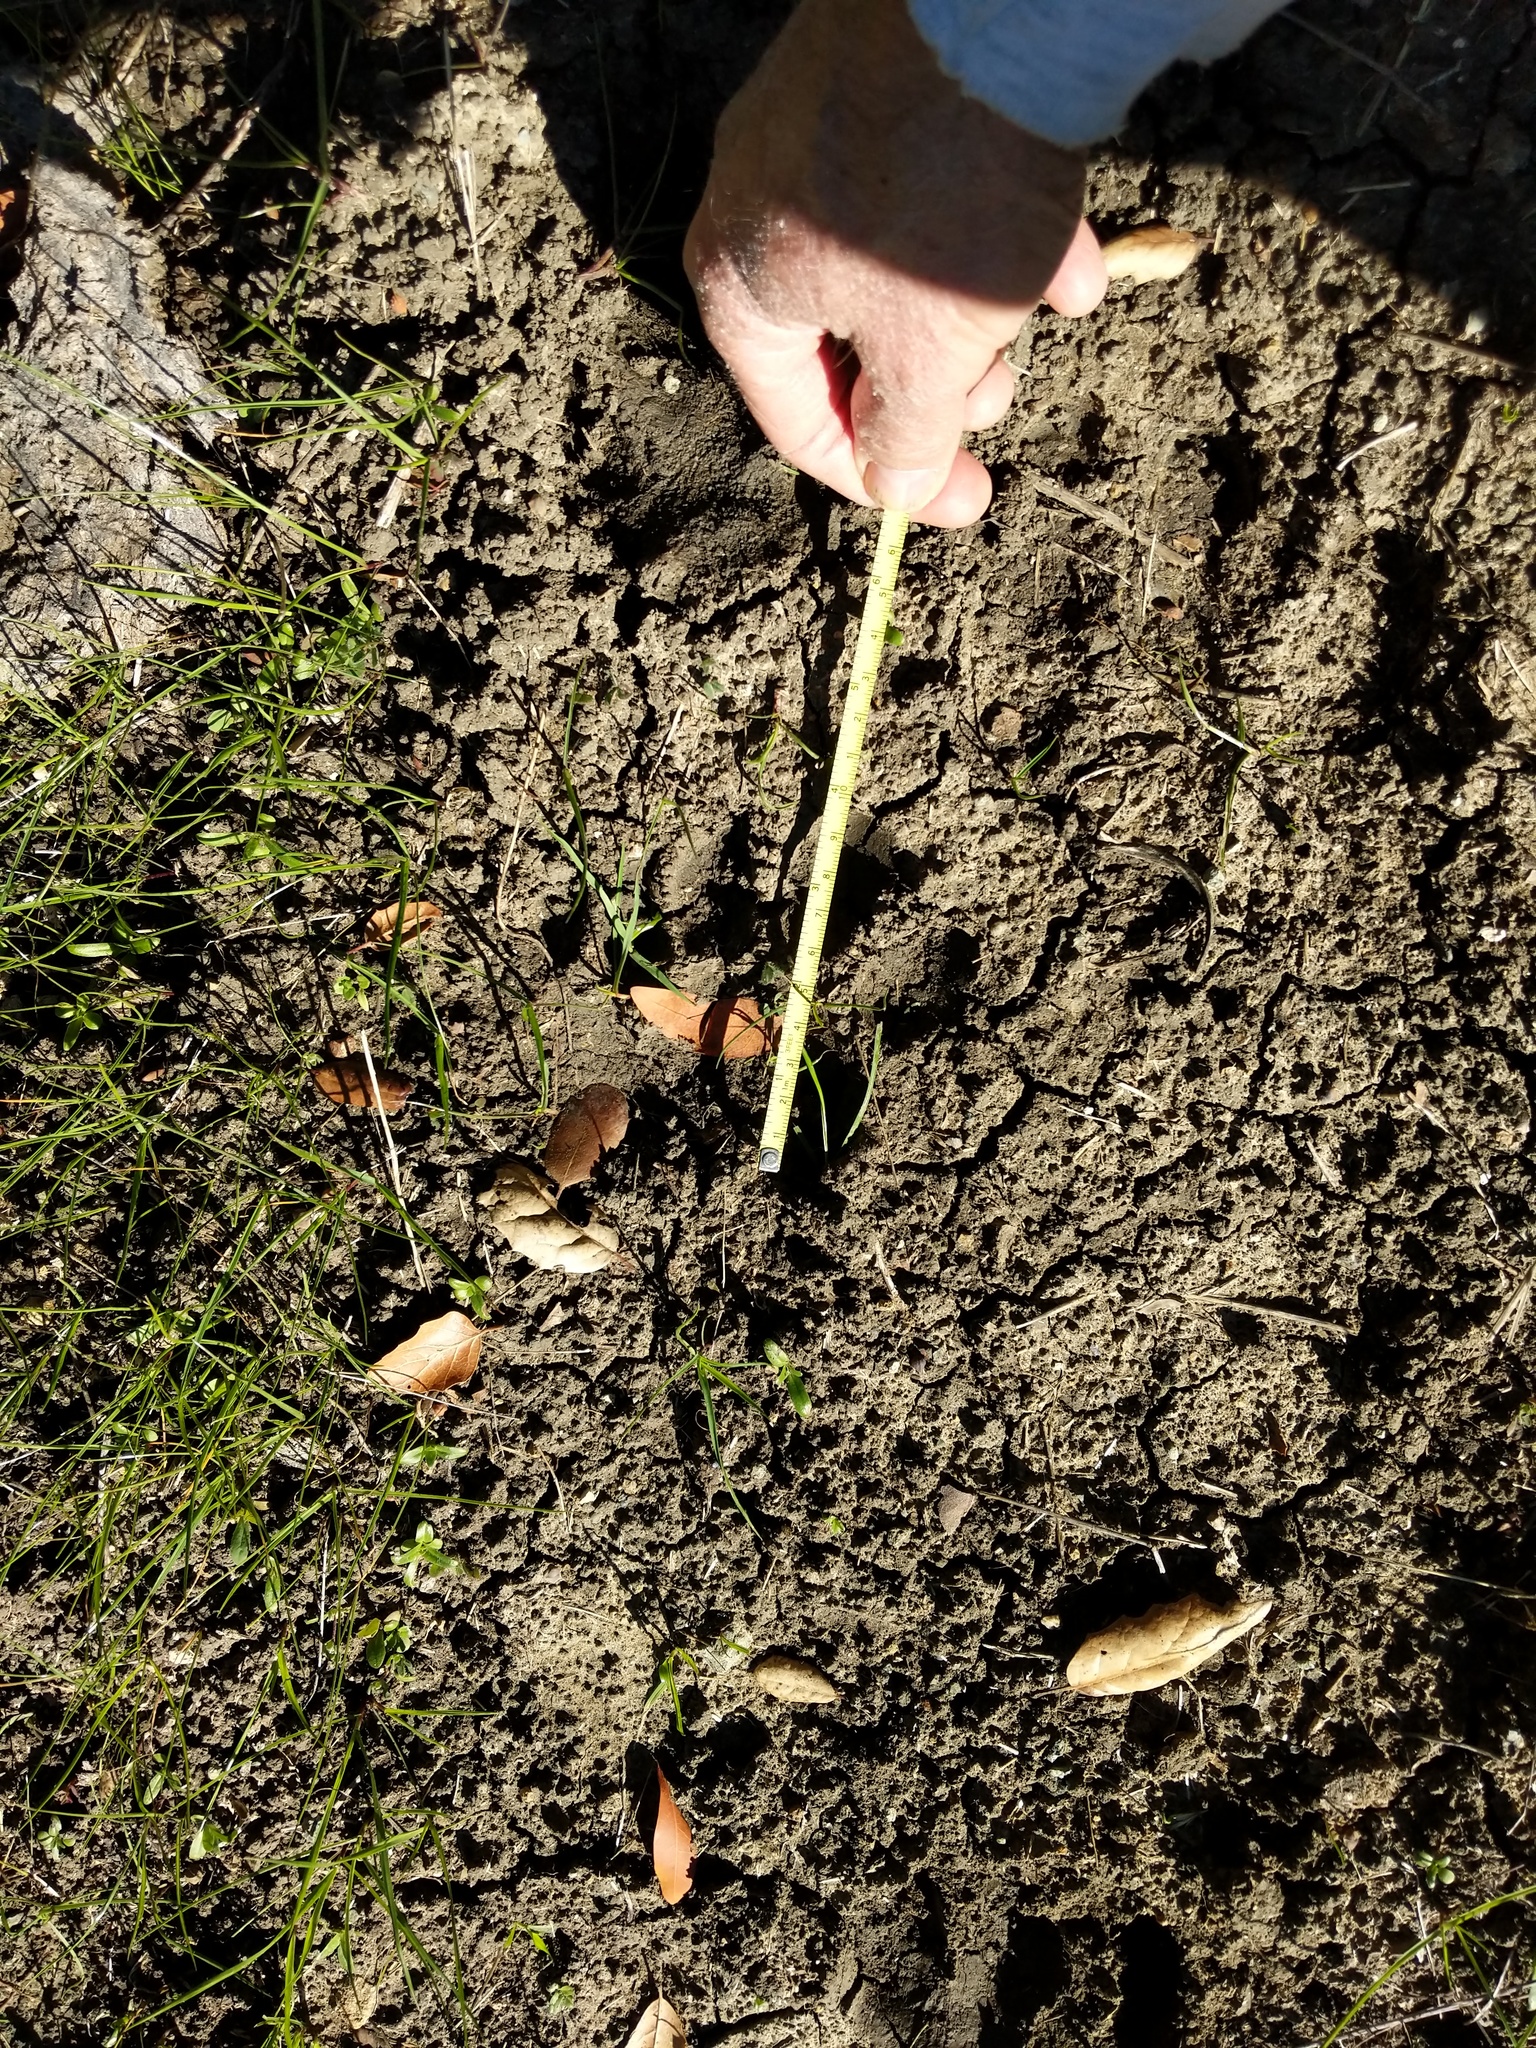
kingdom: Animalia
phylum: Chordata
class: Mammalia
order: Carnivora
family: Felidae
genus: Puma
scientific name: Puma concolor
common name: Puma
